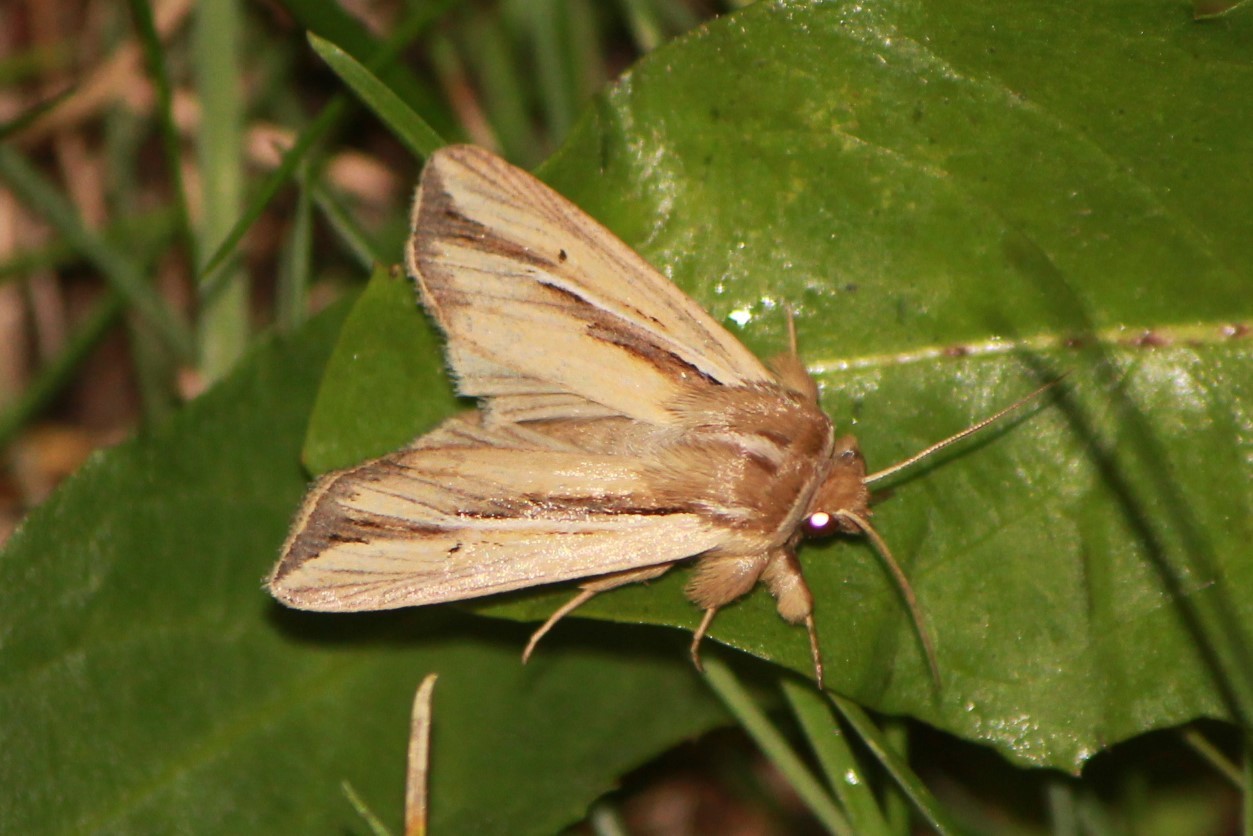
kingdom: Animalia
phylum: Arthropoda
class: Insecta
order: Lepidoptera
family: Noctuidae
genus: Dargida
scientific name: Dargida diffusa
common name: Wheat head armyworm
